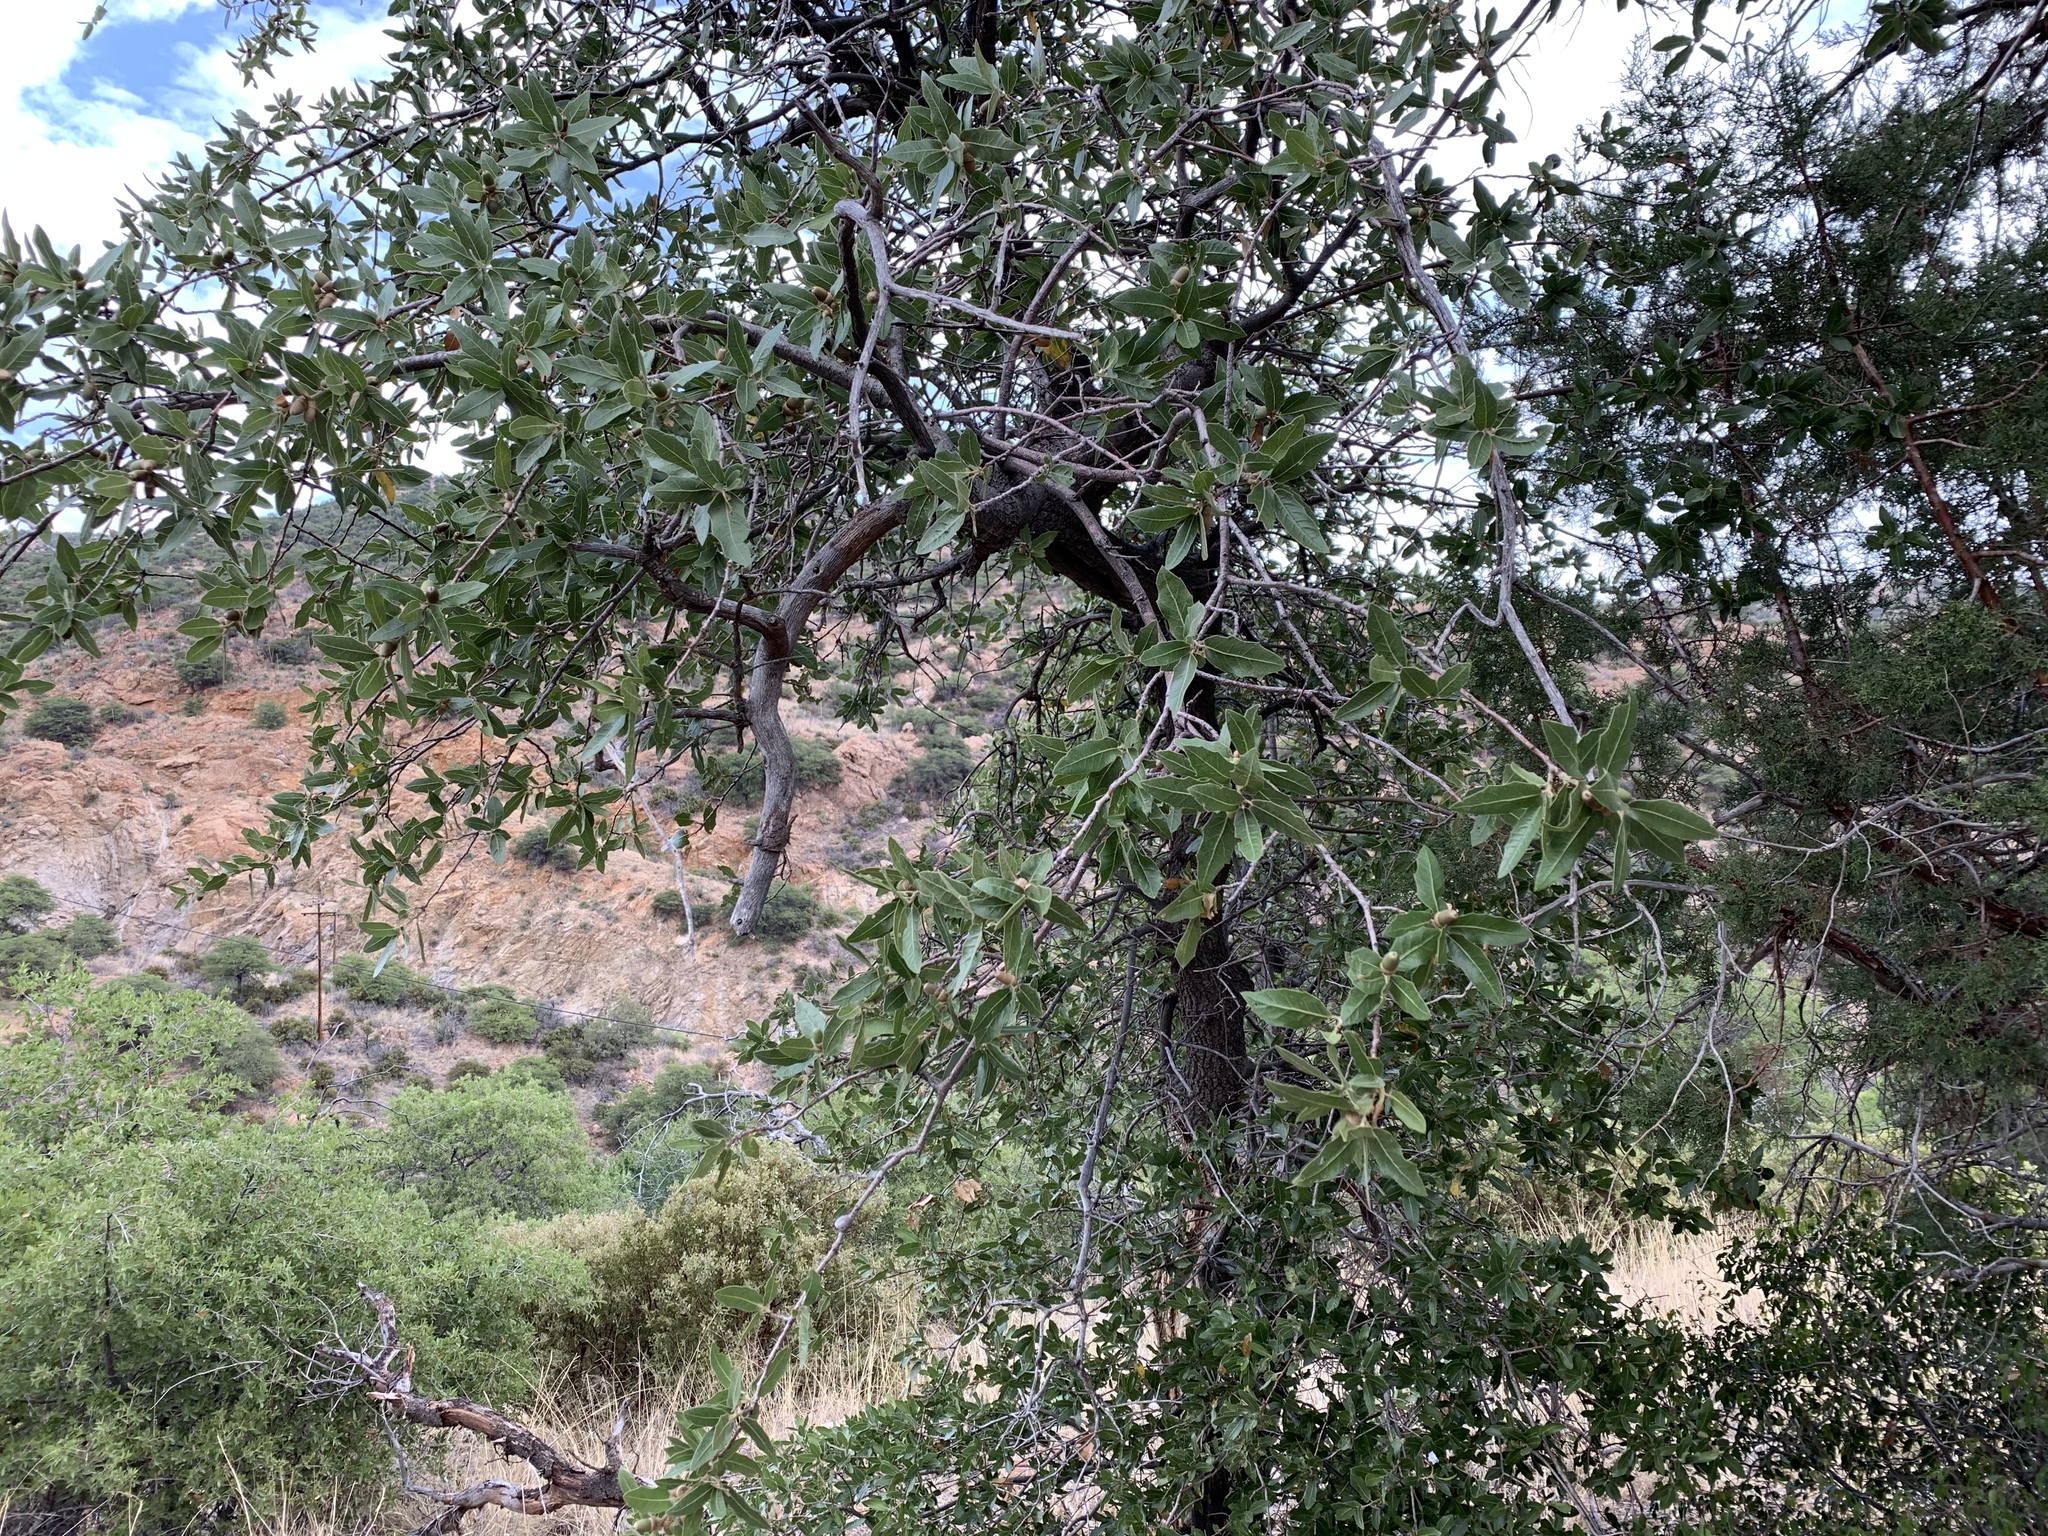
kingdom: Plantae
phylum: Tracheophyta
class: Magnoliopsida
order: Fagales
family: Fagaceae
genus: Quercus
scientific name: Quercus emoryi
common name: Emory oak
